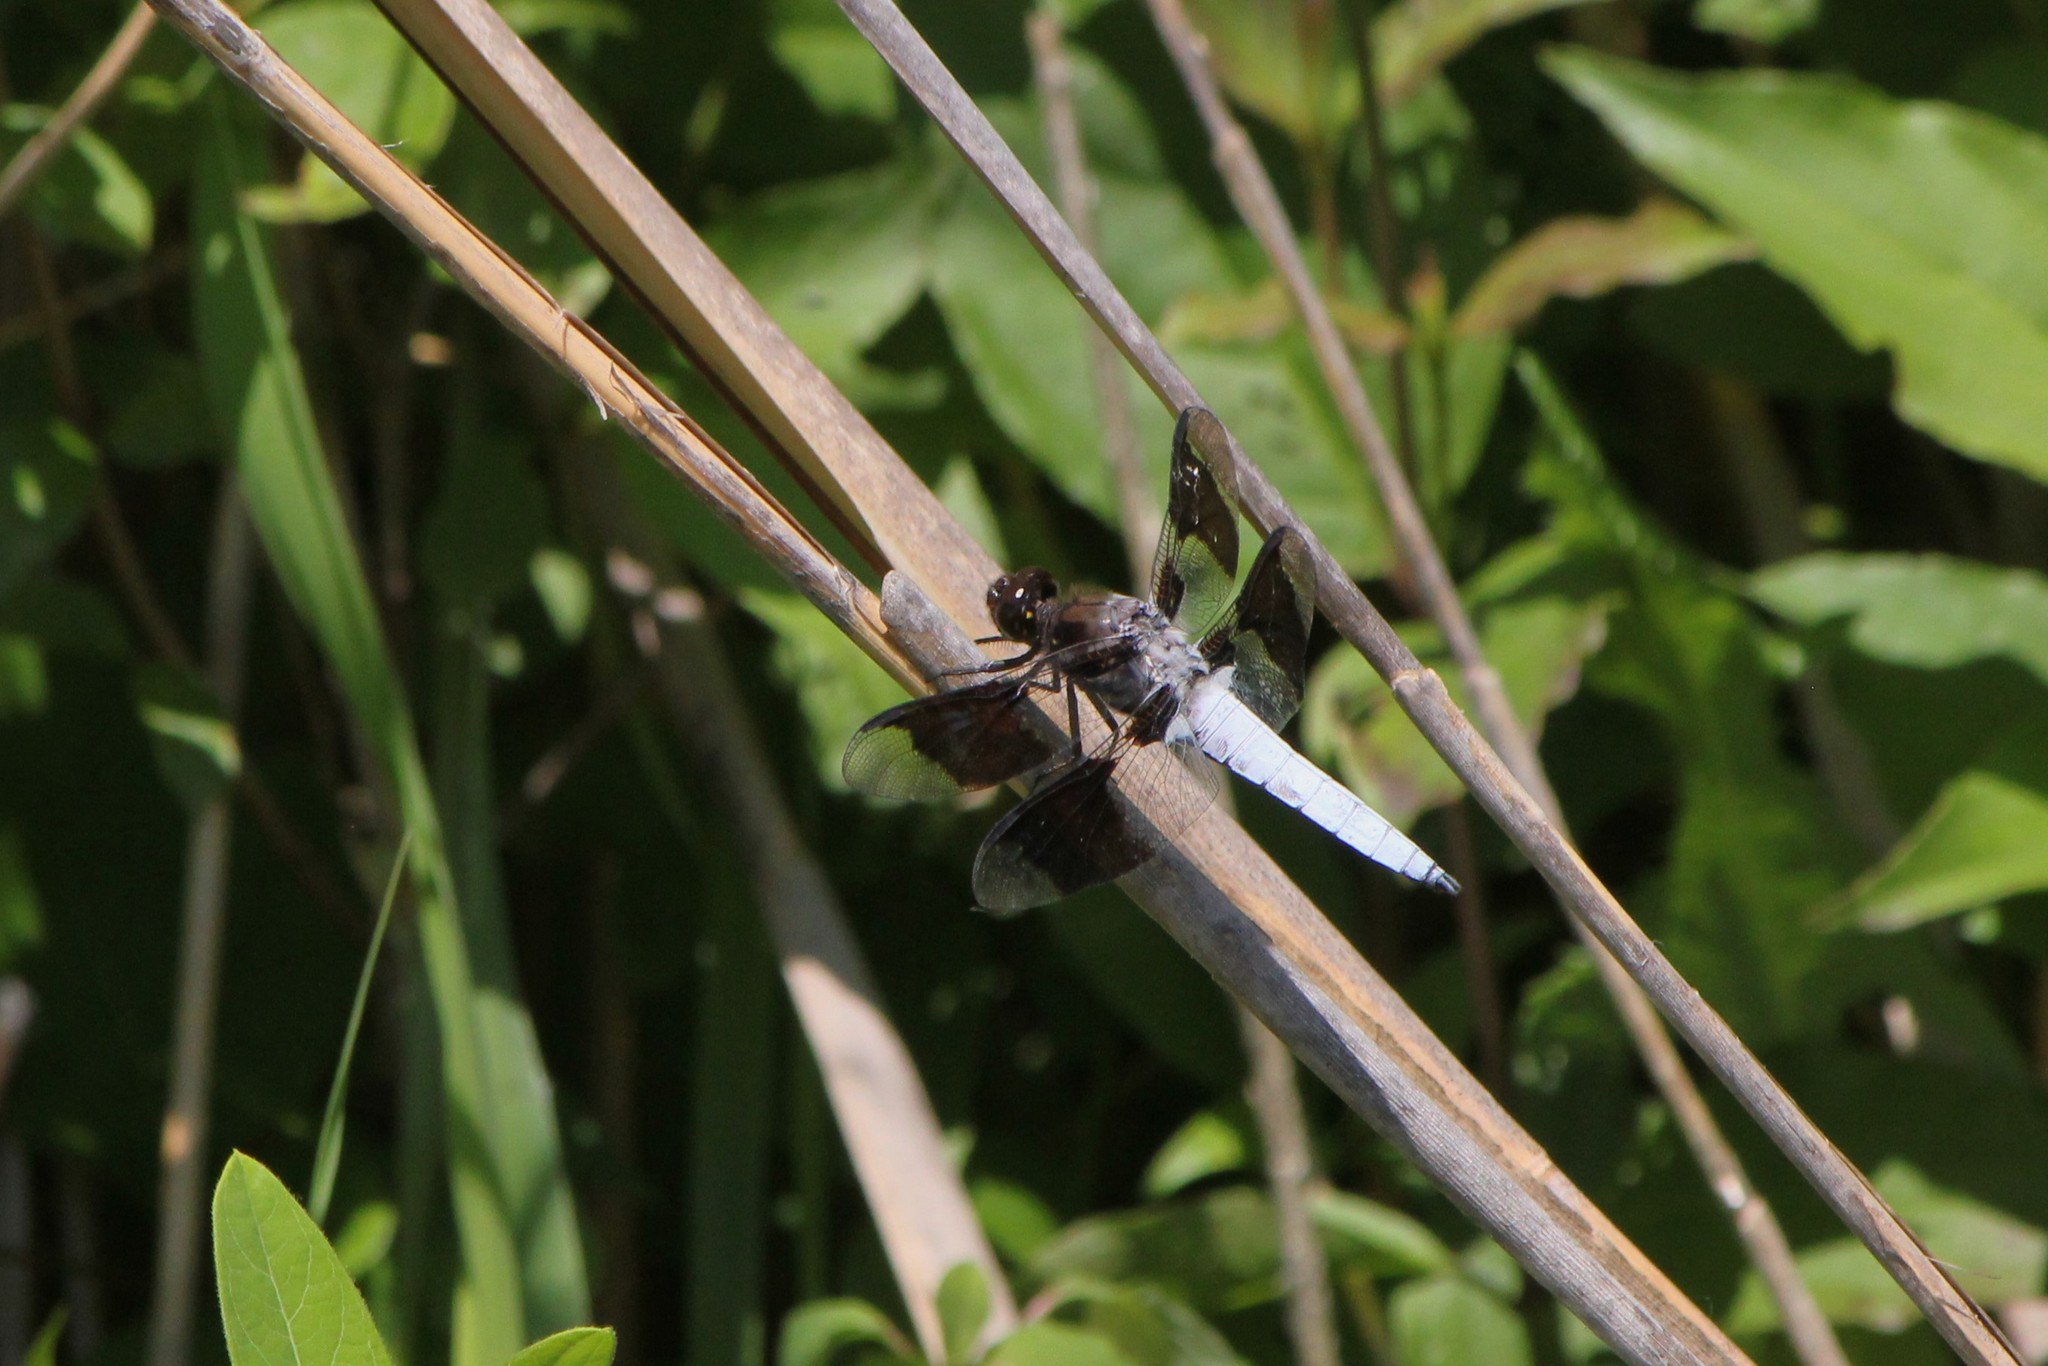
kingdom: Animalia
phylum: Arthropoda
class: Insecta
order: Odonata
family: Libellulidae
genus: Plathemis
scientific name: Plathemis lydia
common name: Common whitetail
